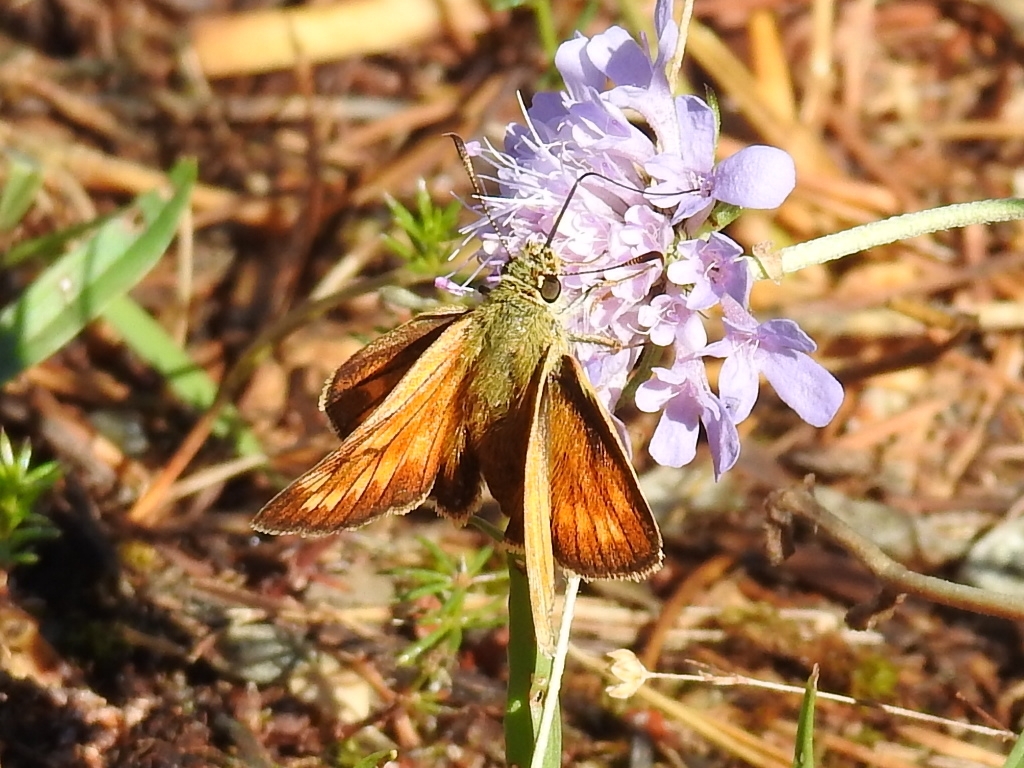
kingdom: Animalia
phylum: Arthropoda
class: Insecta
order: Lepidoptera
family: Hesperiidae
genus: Ochlodes
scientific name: Ochlodes venata
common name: Large skipper
